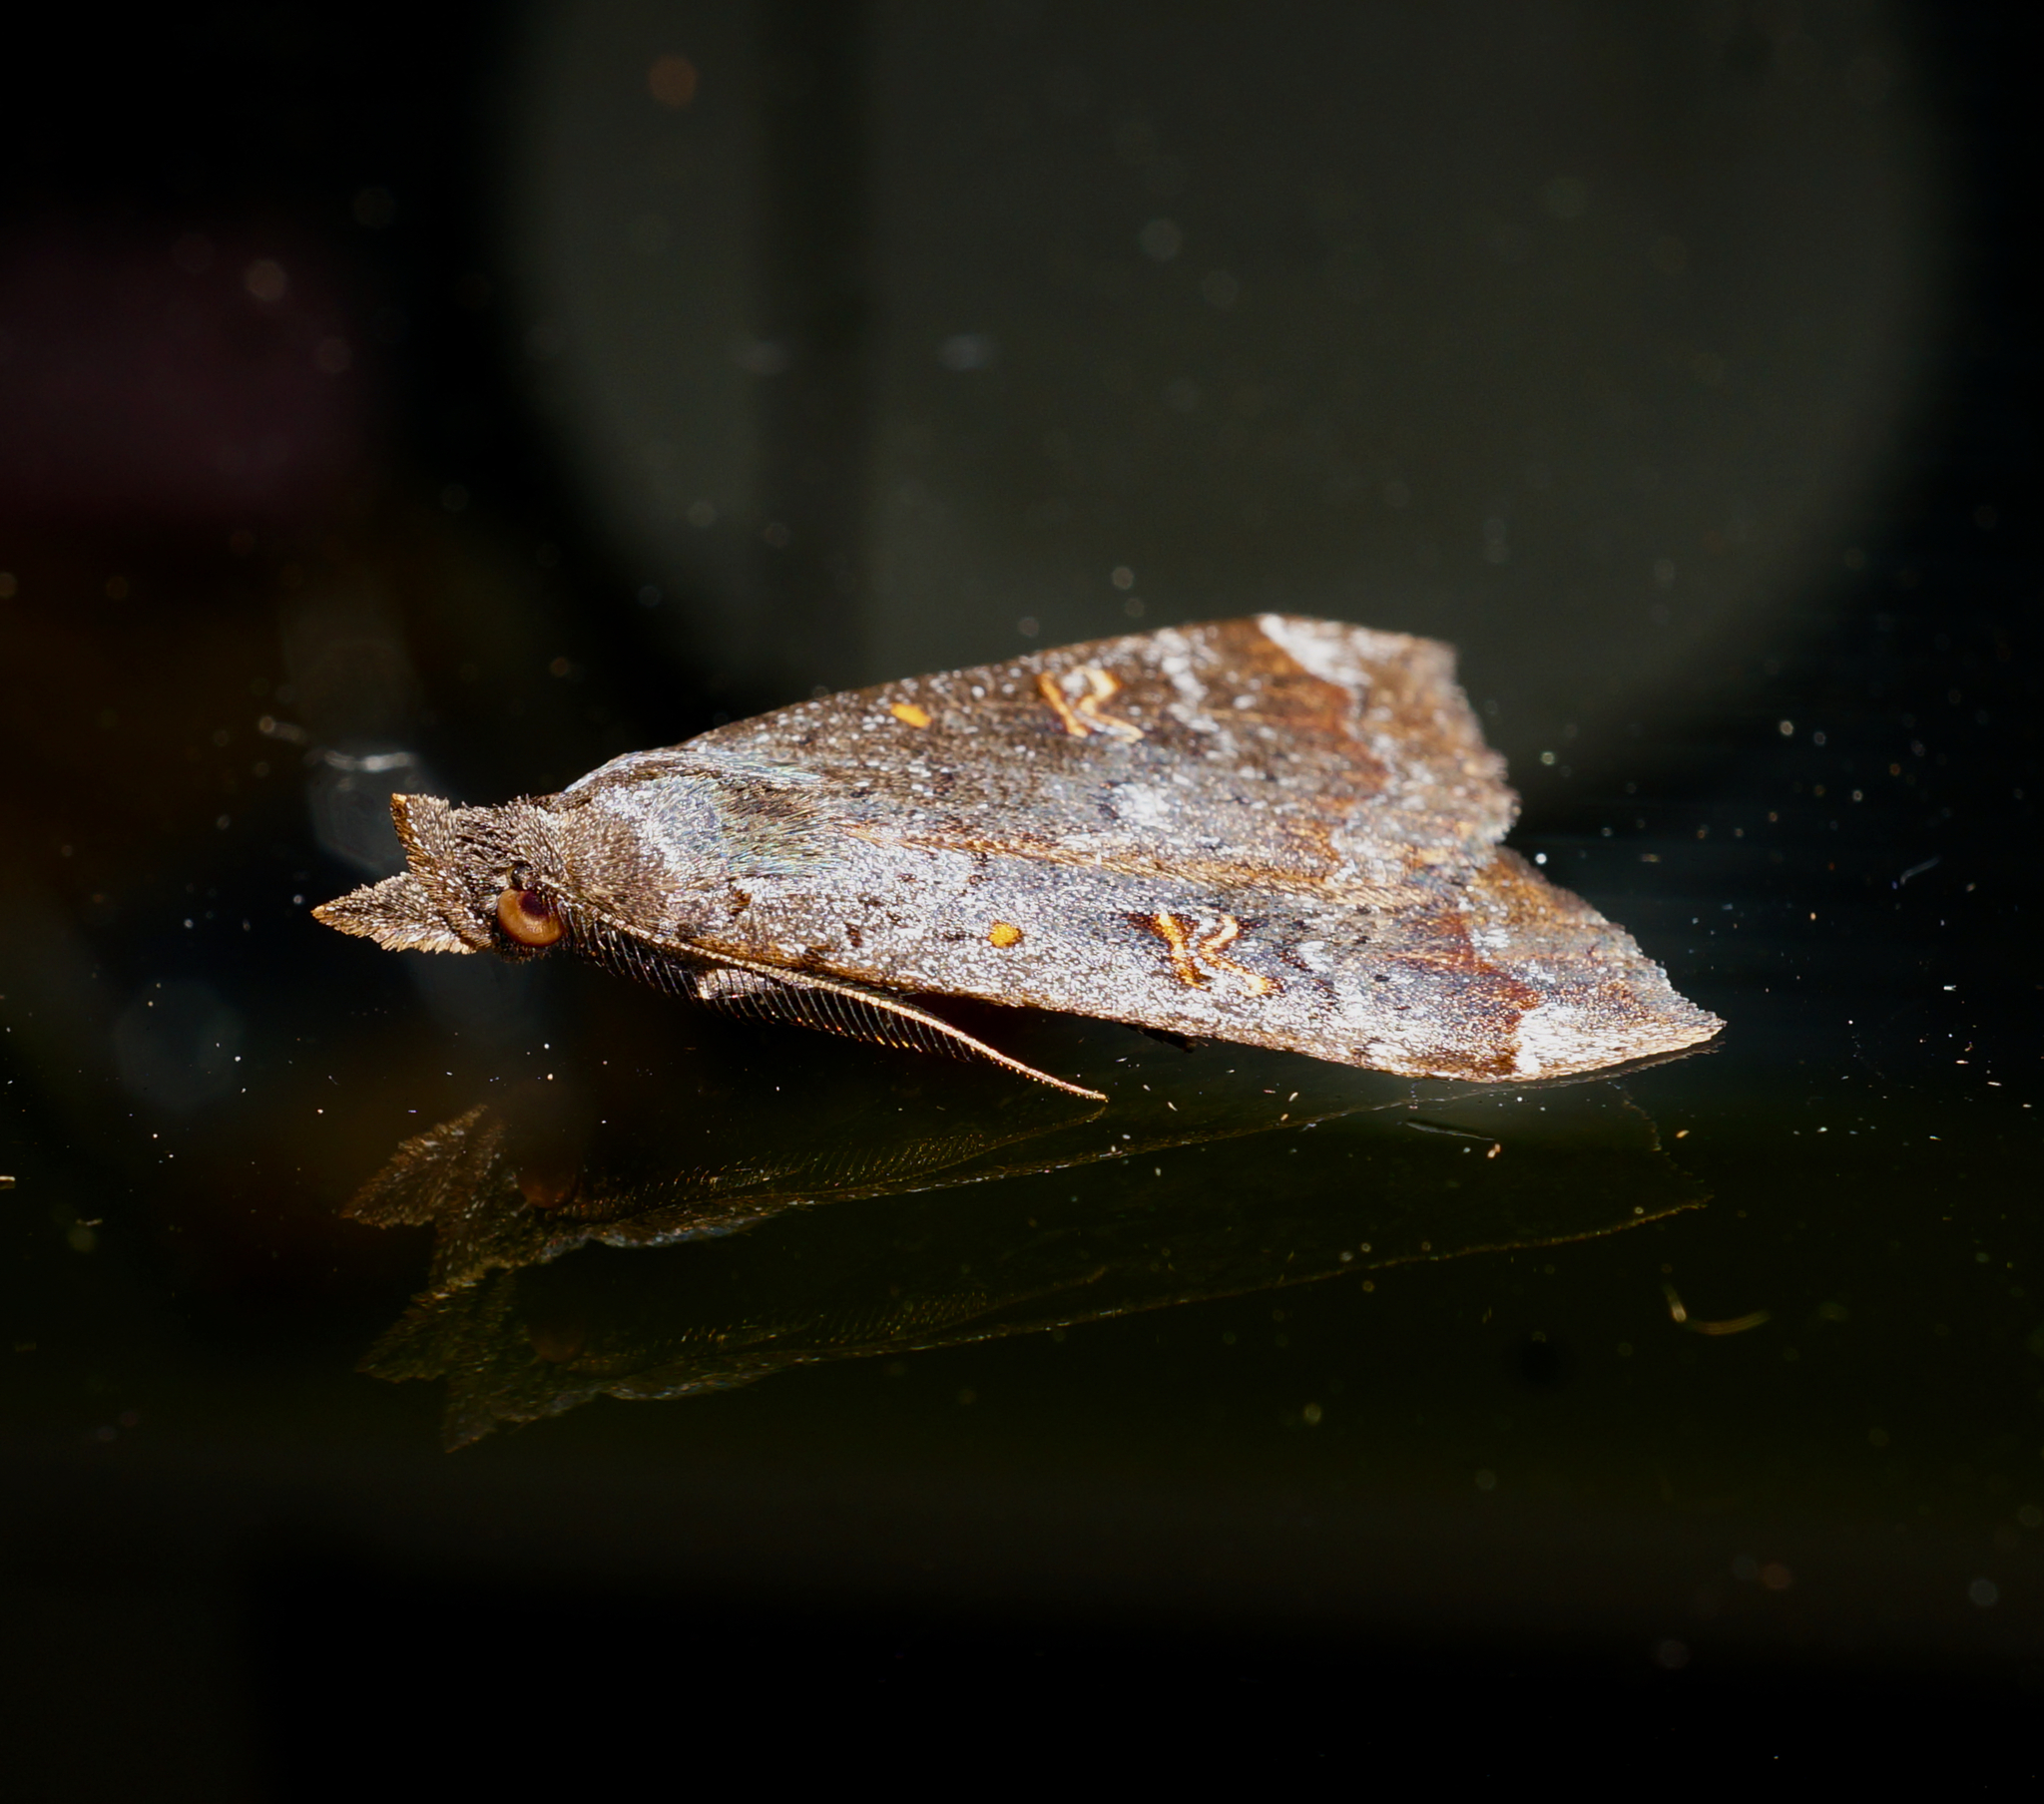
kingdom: Animalia
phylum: Arthropoda
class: Insecta
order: Lepidoptera
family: Erebidae
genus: Rhapsa
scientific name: Rhapsa scotosialis
